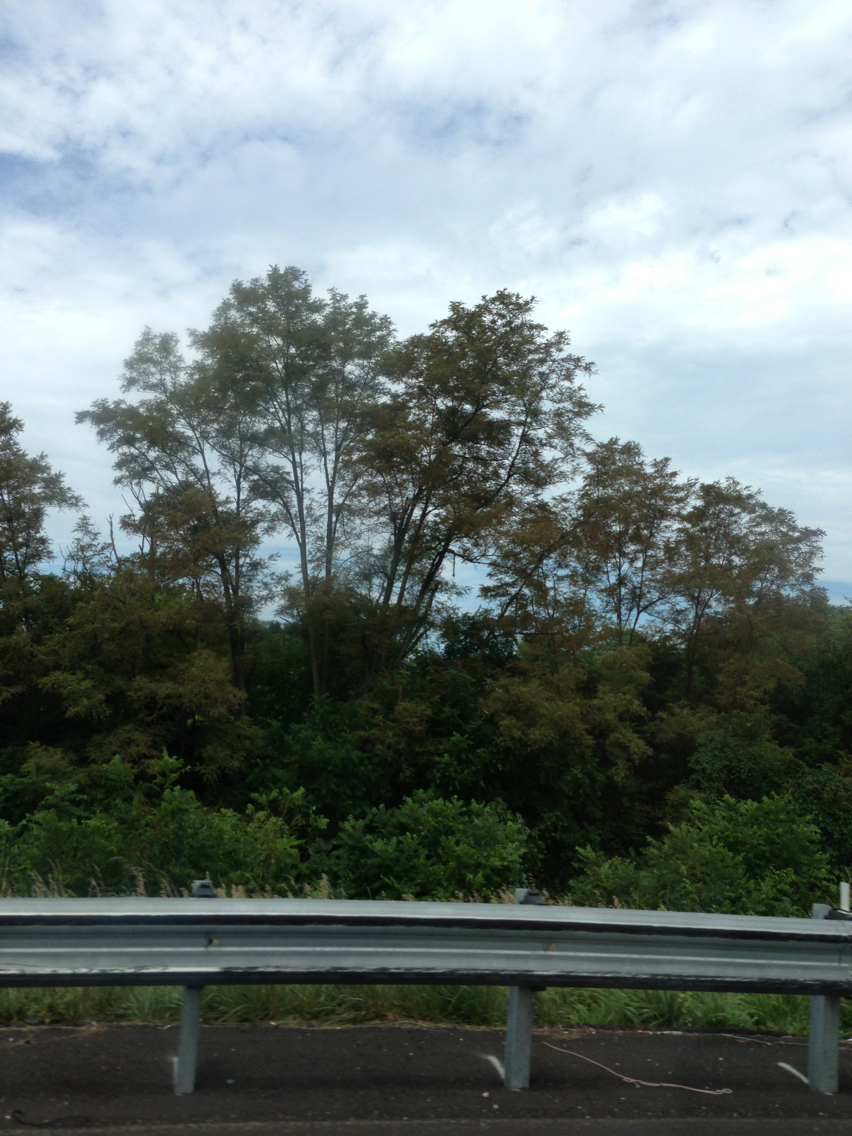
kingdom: Plantae
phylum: Tracheophyta
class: Magnoliopsida
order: Fabales
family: Fabaceae
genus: Robinia
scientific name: Robinia pseudoacacia
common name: Black locust
